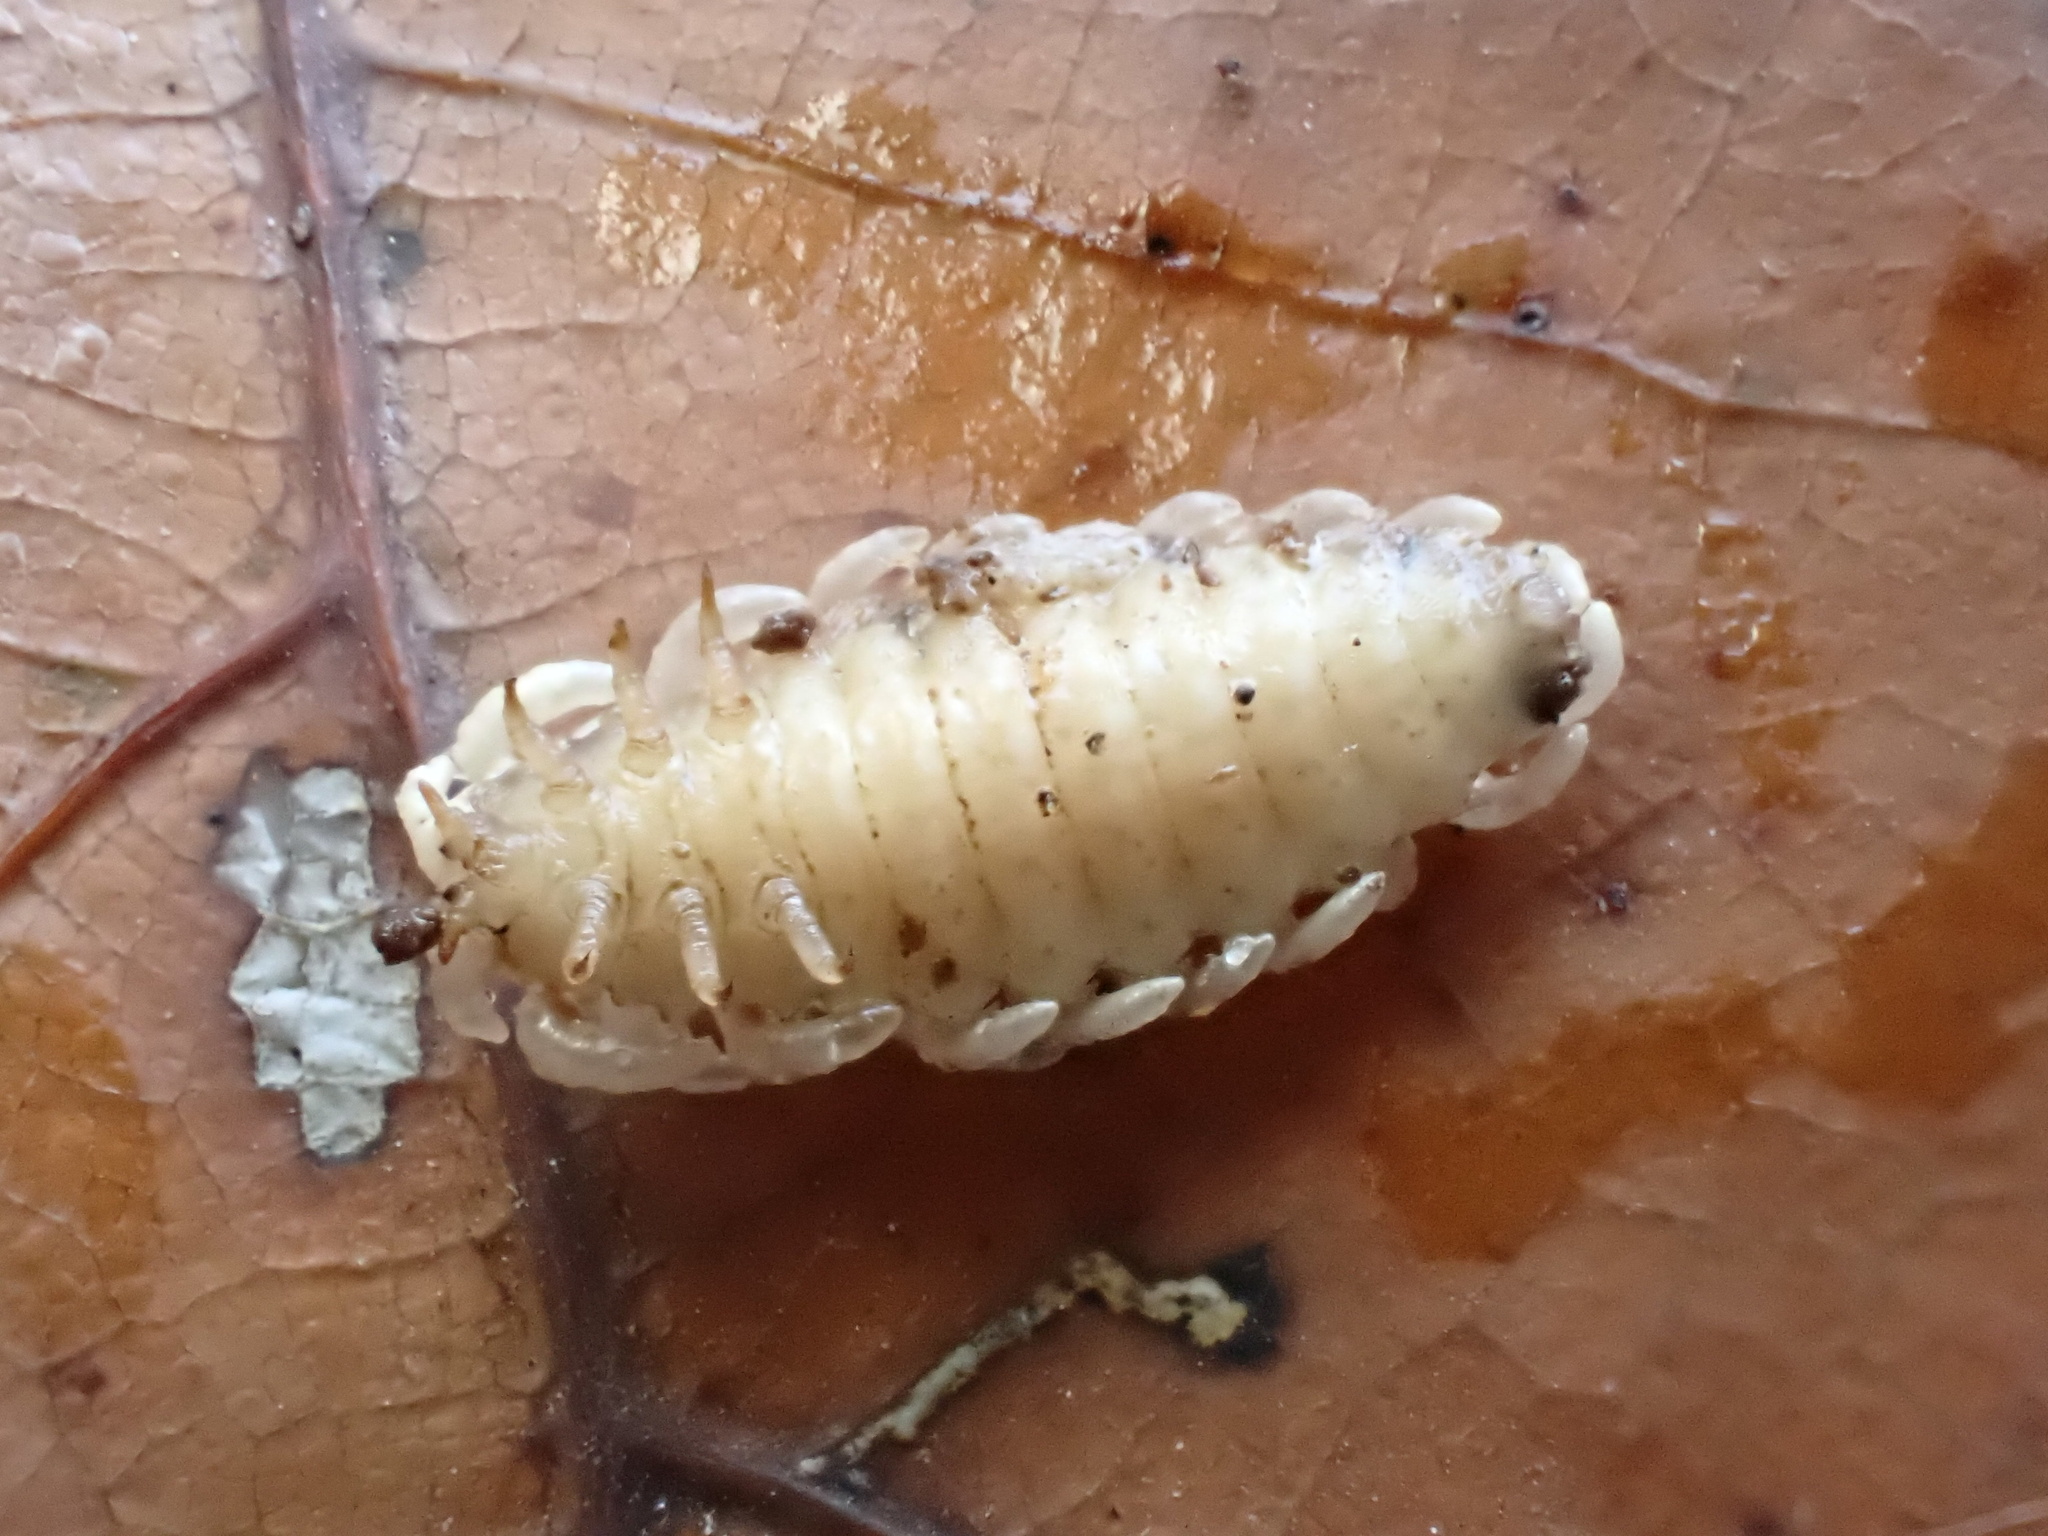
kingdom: Animalia
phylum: Arthropoda
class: Insecta
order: Coleoptera
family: Lycidae
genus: Caenia
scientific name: Caenia dimidiata
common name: Terminal net-winged beetle
